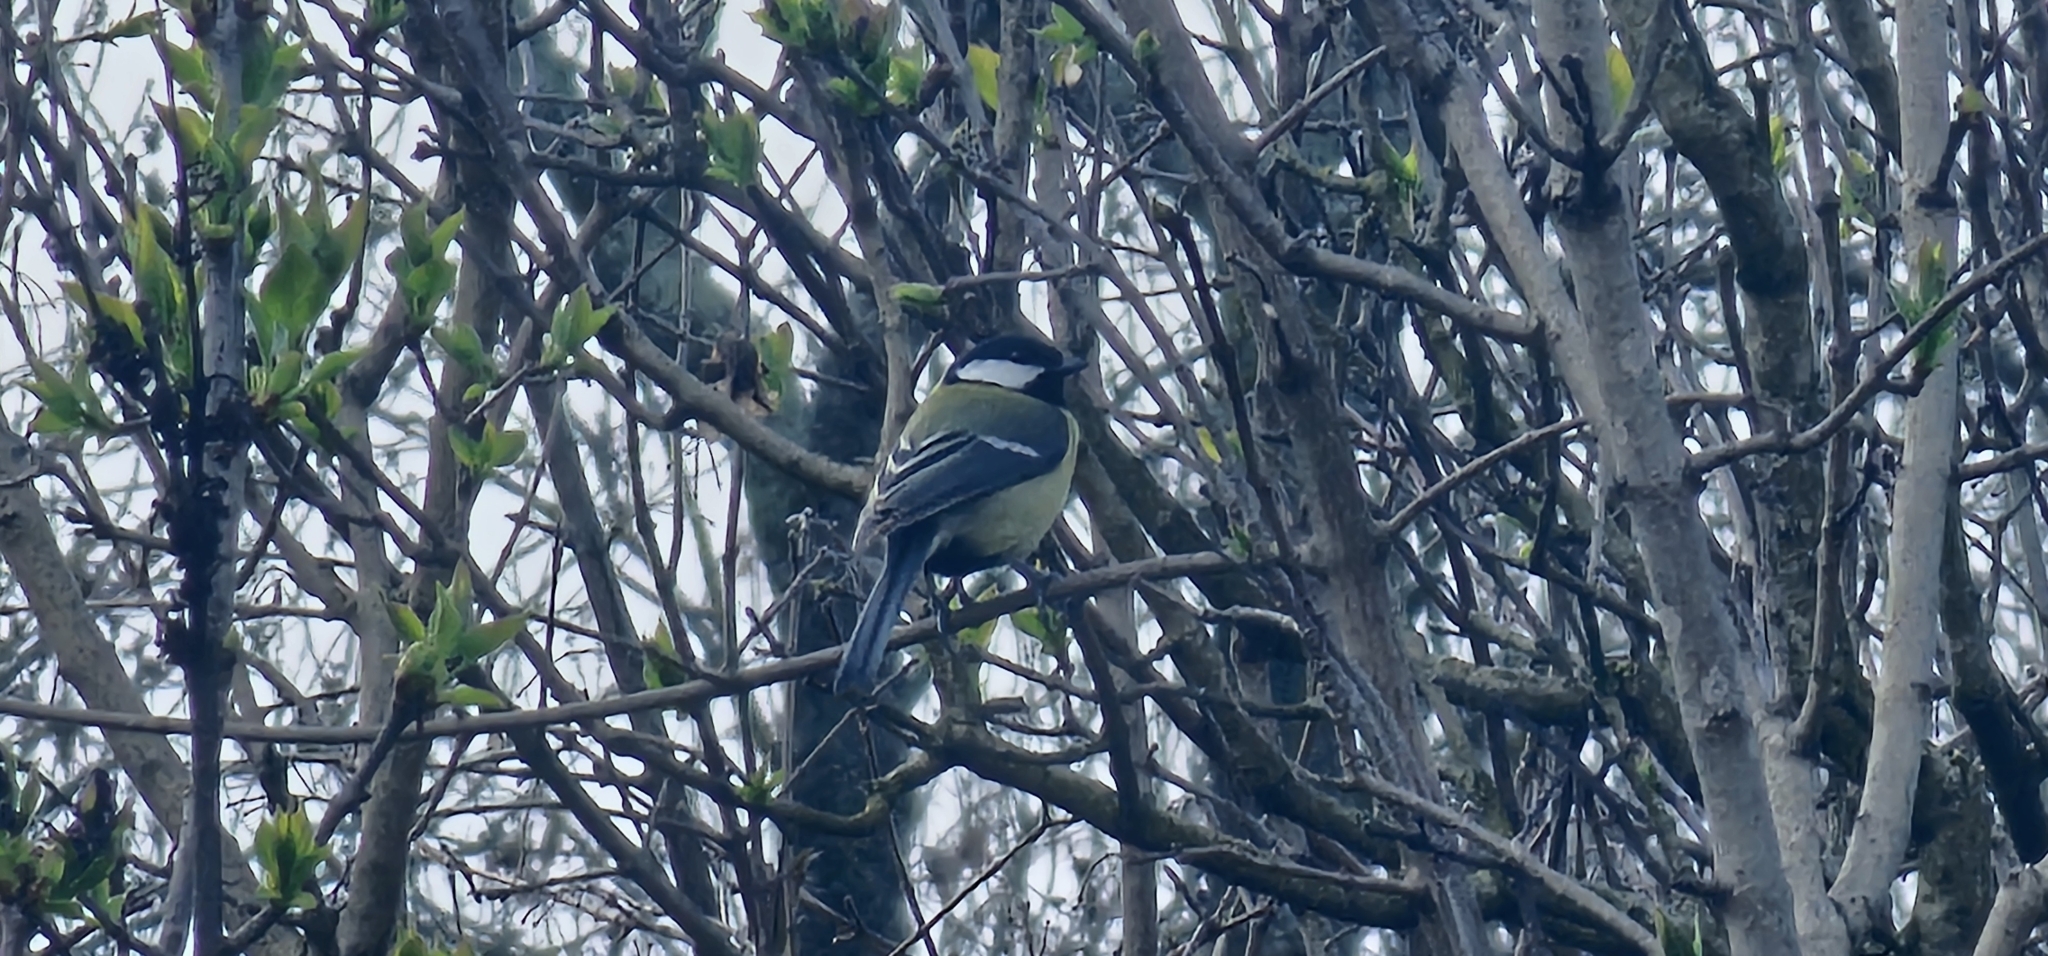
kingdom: Animalia
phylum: Chordata
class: Aves
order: Passeriformes
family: Paridae
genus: Parus
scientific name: Parus major
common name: Great tit
